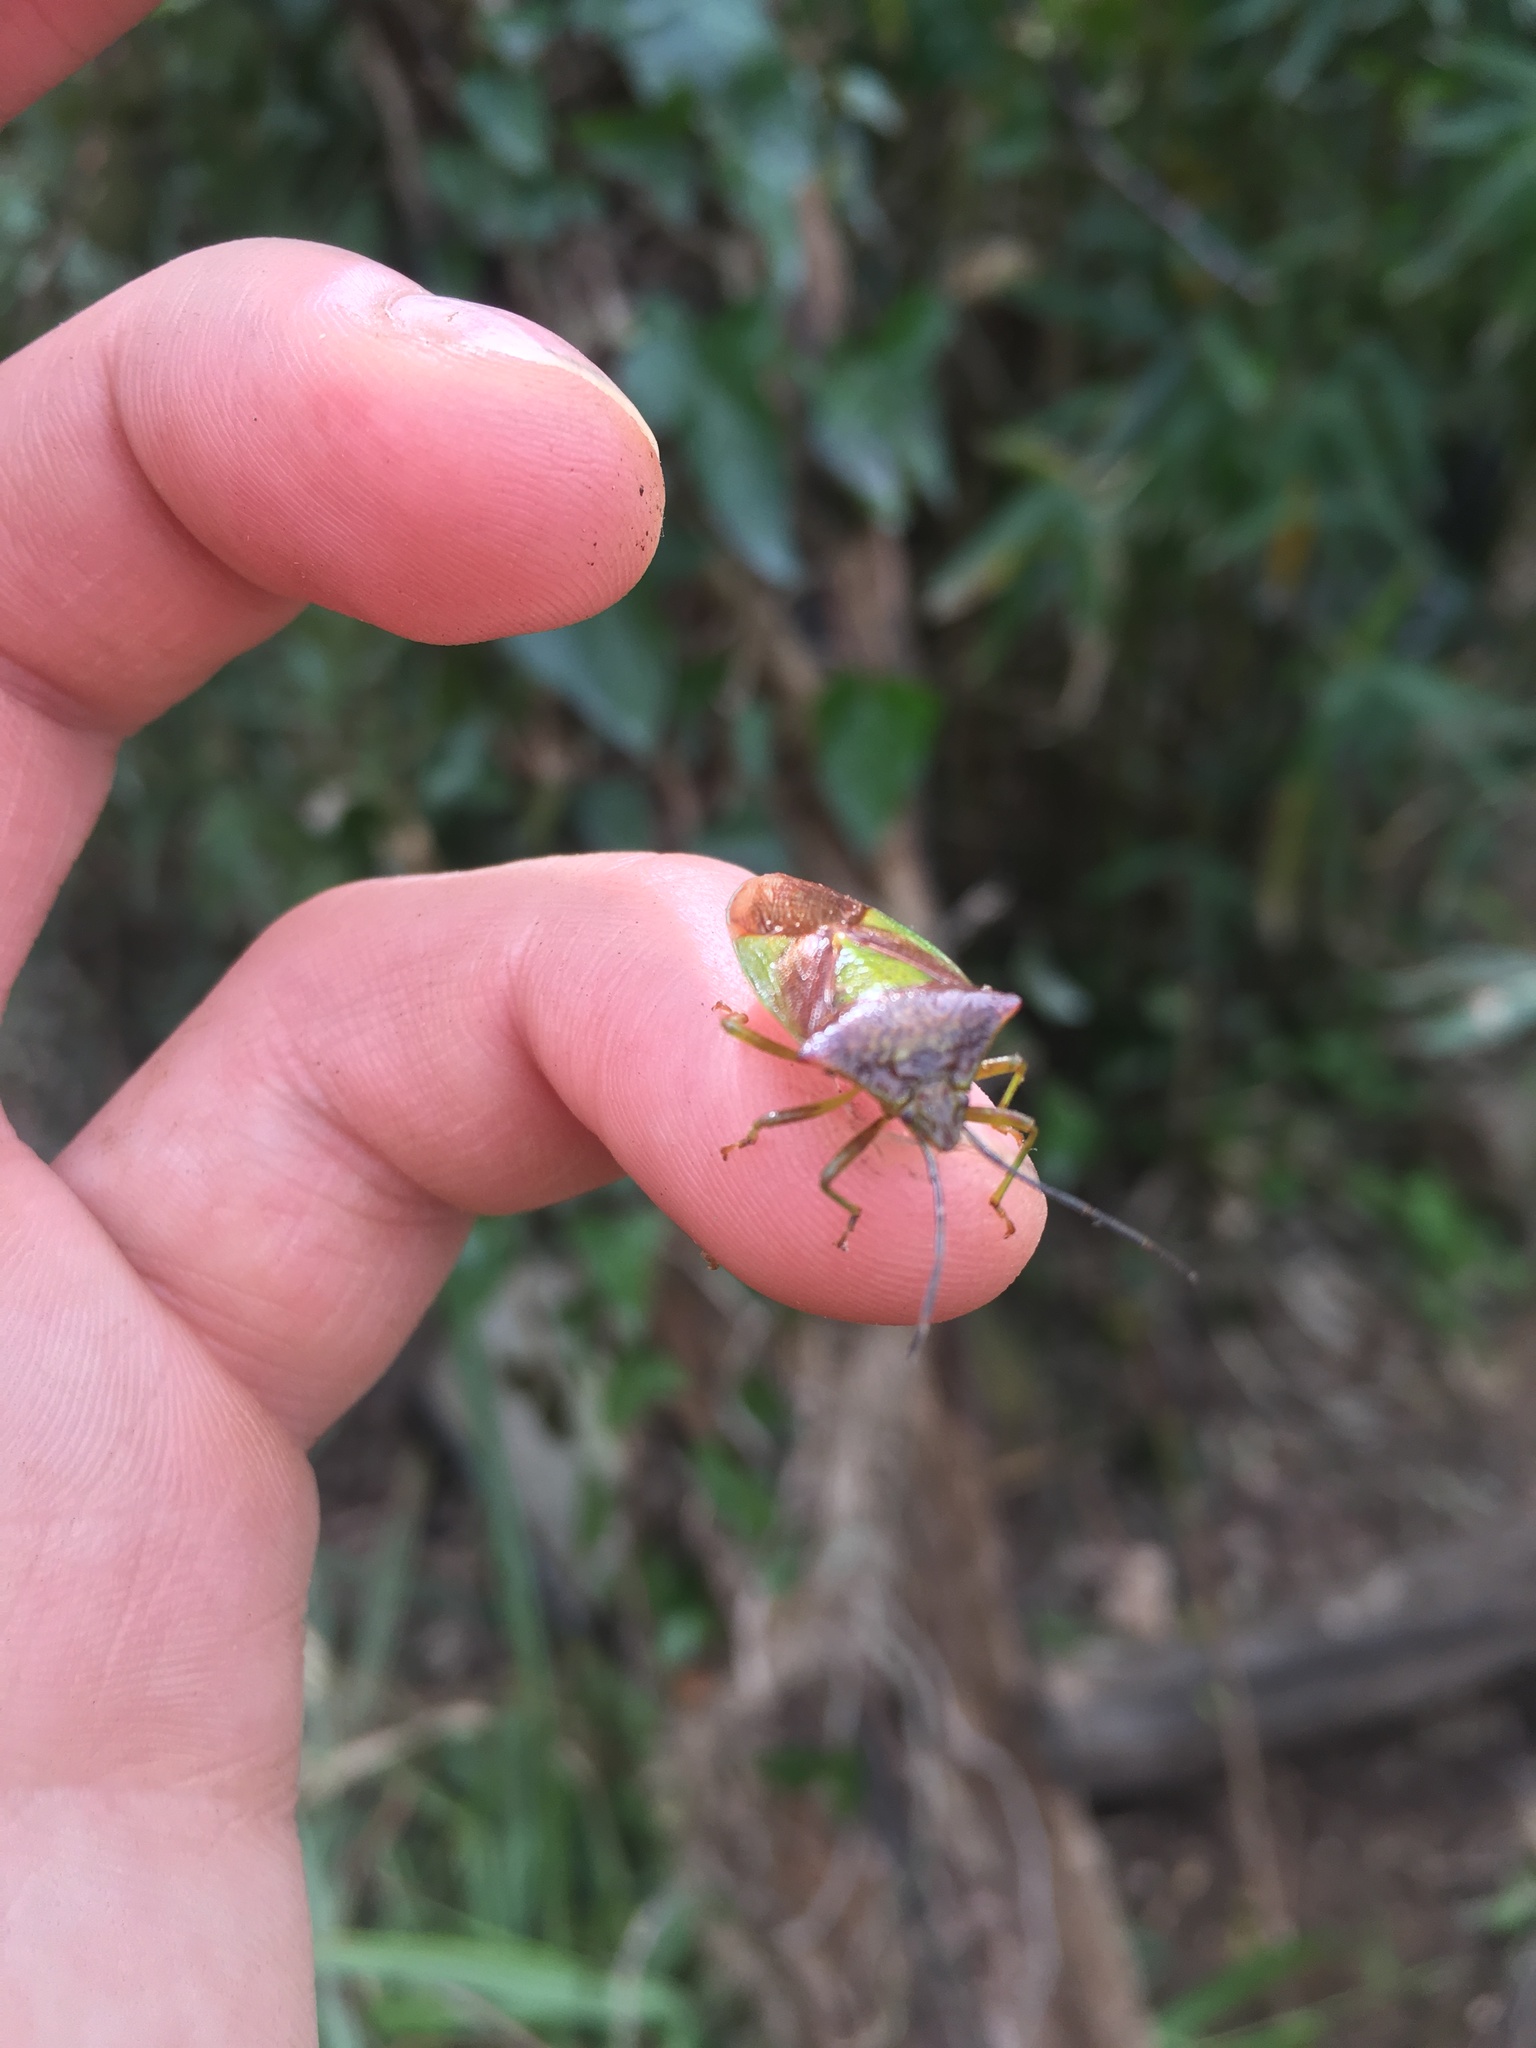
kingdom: Animalia
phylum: Arthropoda
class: Insecta
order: Hemiptera
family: Acanthosomatidae
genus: Acanthosoma
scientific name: Acanthosoma haemorrhoidale
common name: Hawthorn shieldbug
